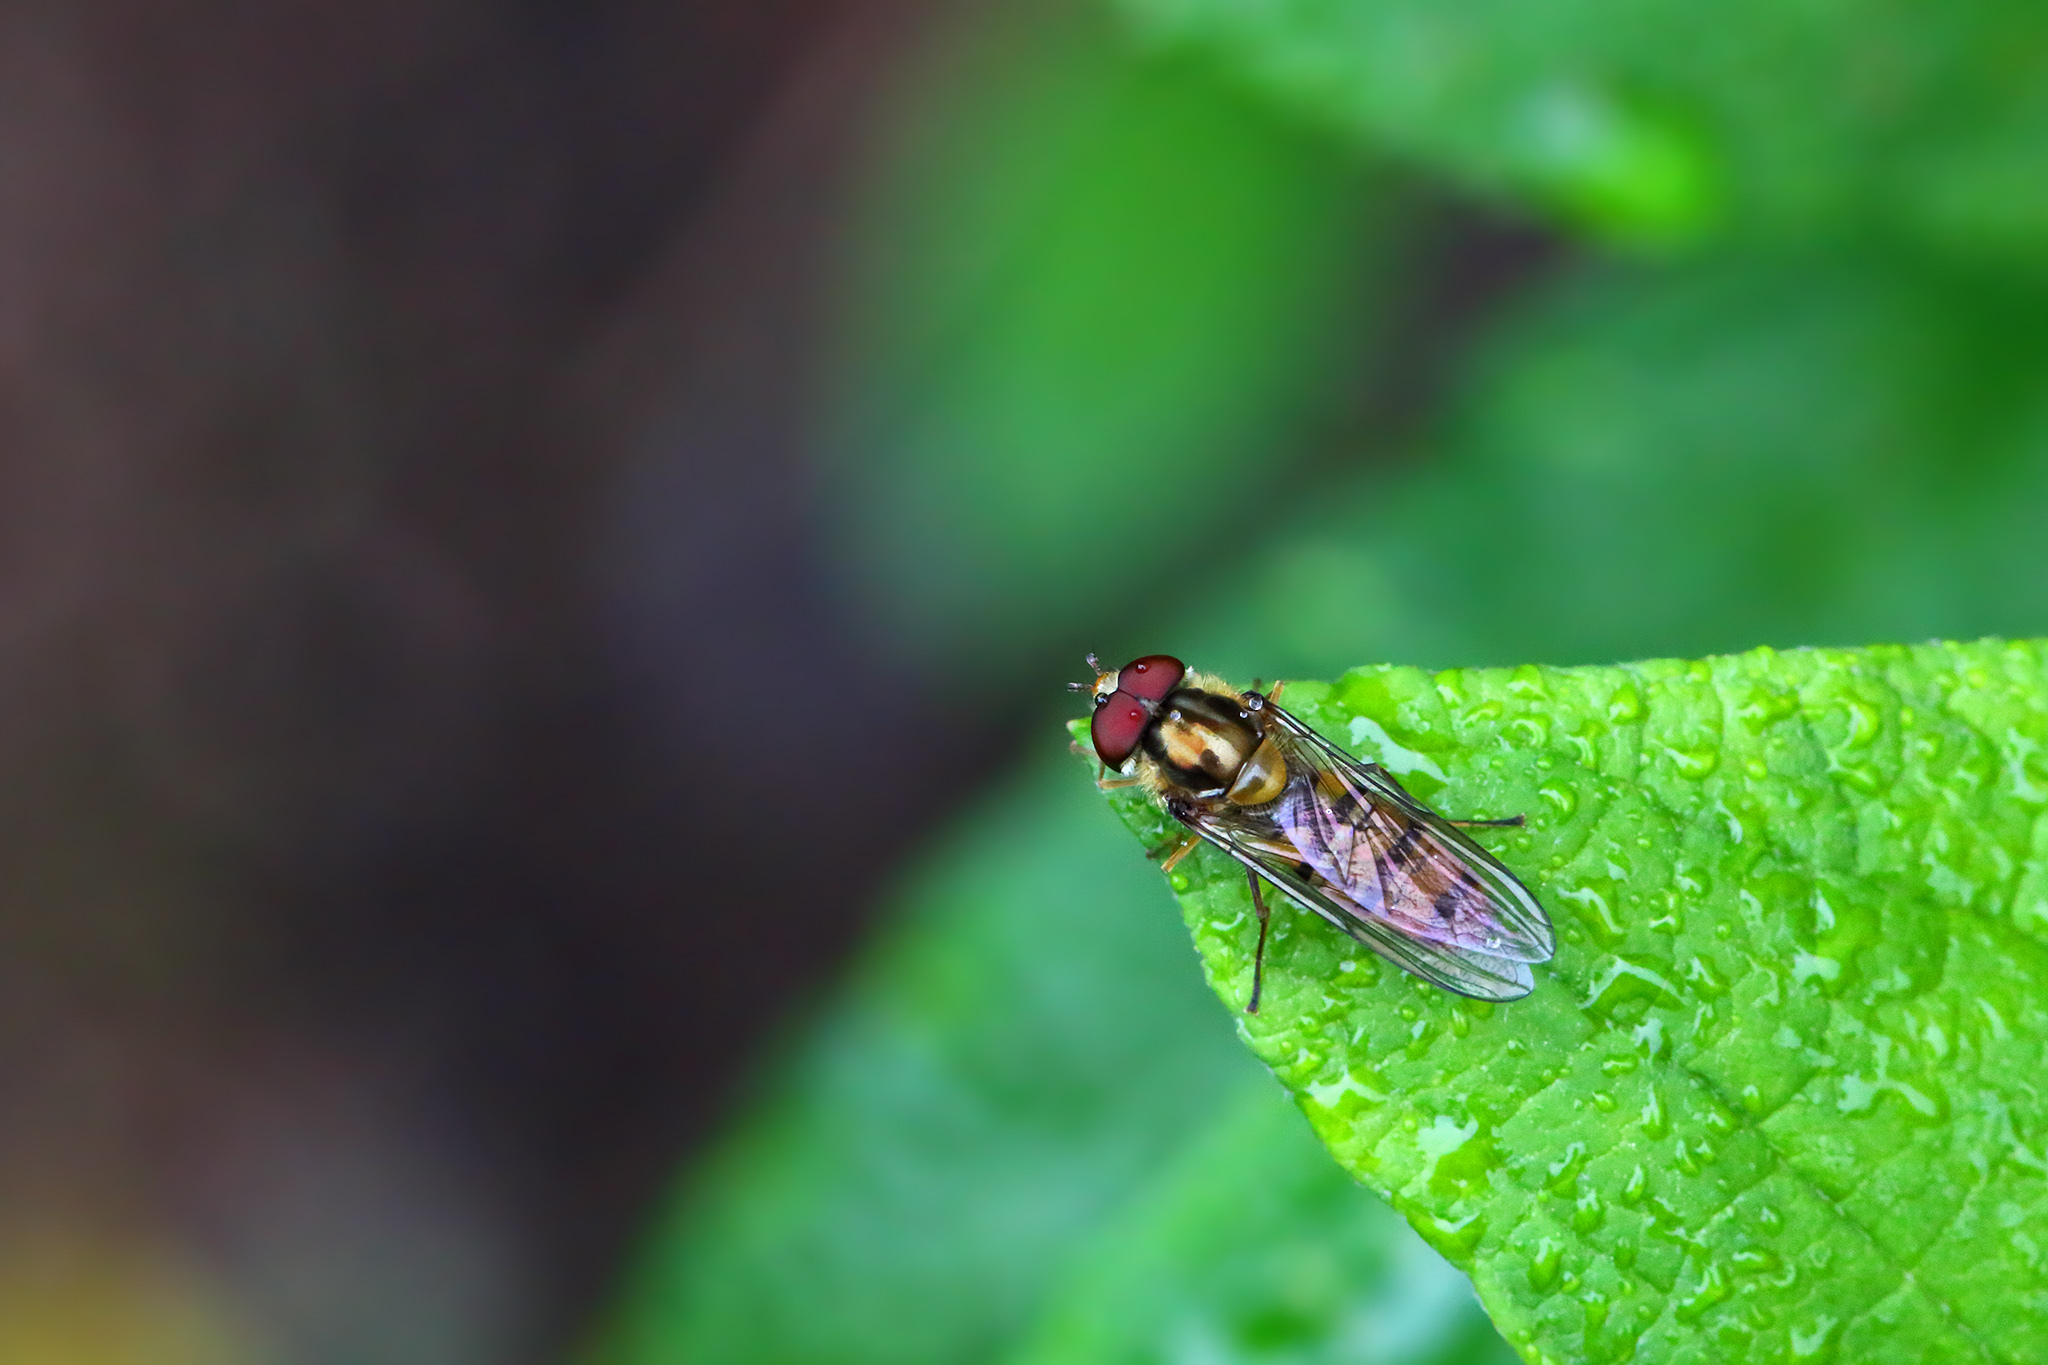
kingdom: Animalia
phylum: Arthropoda
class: Insecta
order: Diptera
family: Syrphidae
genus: Episyrphus
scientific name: Episyrphus balteatus
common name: Marmalade hoverfly
